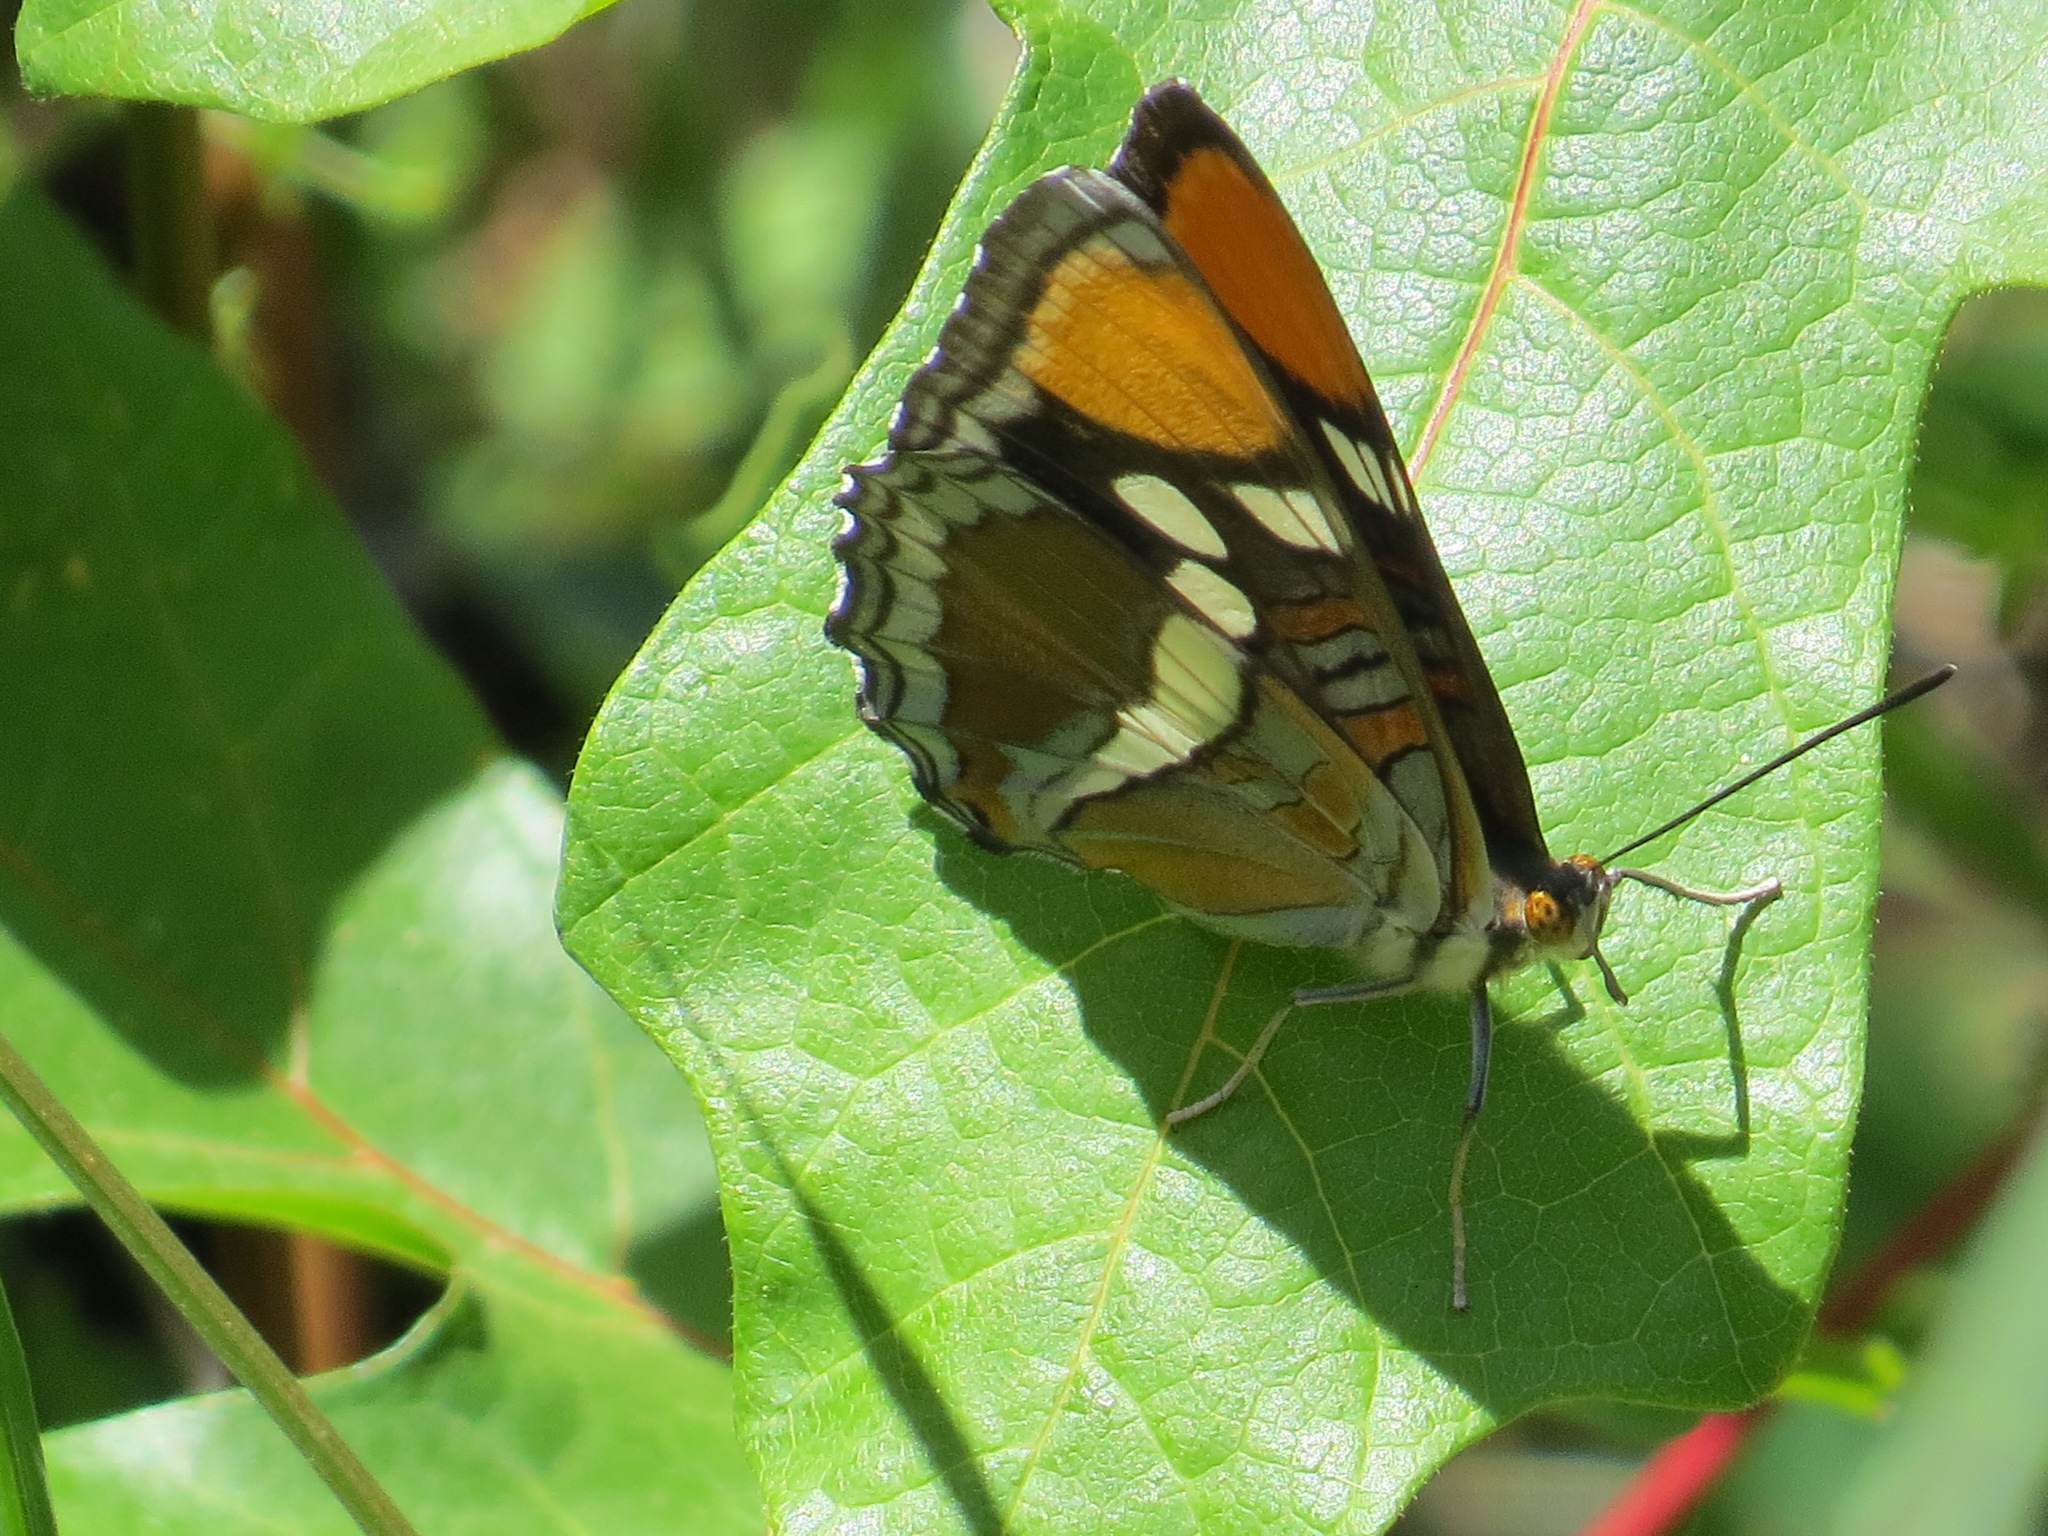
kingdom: Animalia
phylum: Arthropoda
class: Insecta
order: Lepidoptera
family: Nymphalidae
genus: Limenitis
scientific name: Limenitis bredowii
